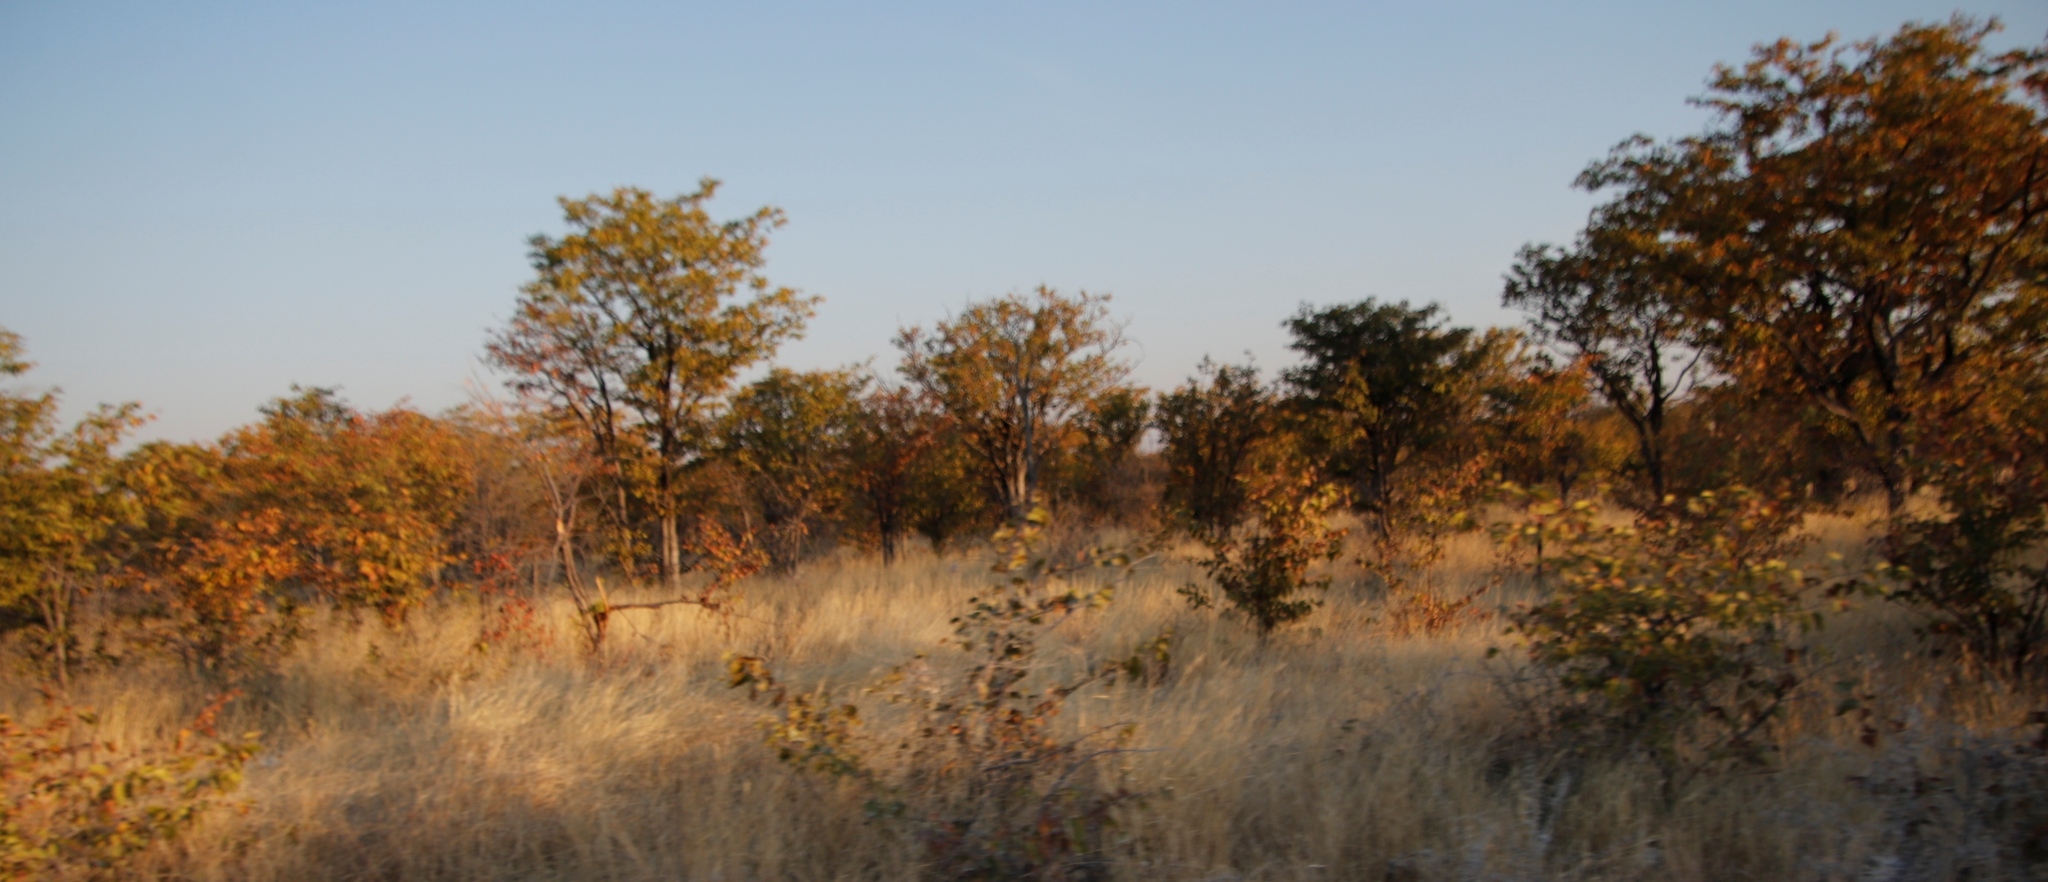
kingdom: Plantae
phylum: Tracheophyta
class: Magnoliopsida
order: Fabales
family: Fabaceae
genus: Colophospermum
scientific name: Colophospermum mopane
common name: Mopane
